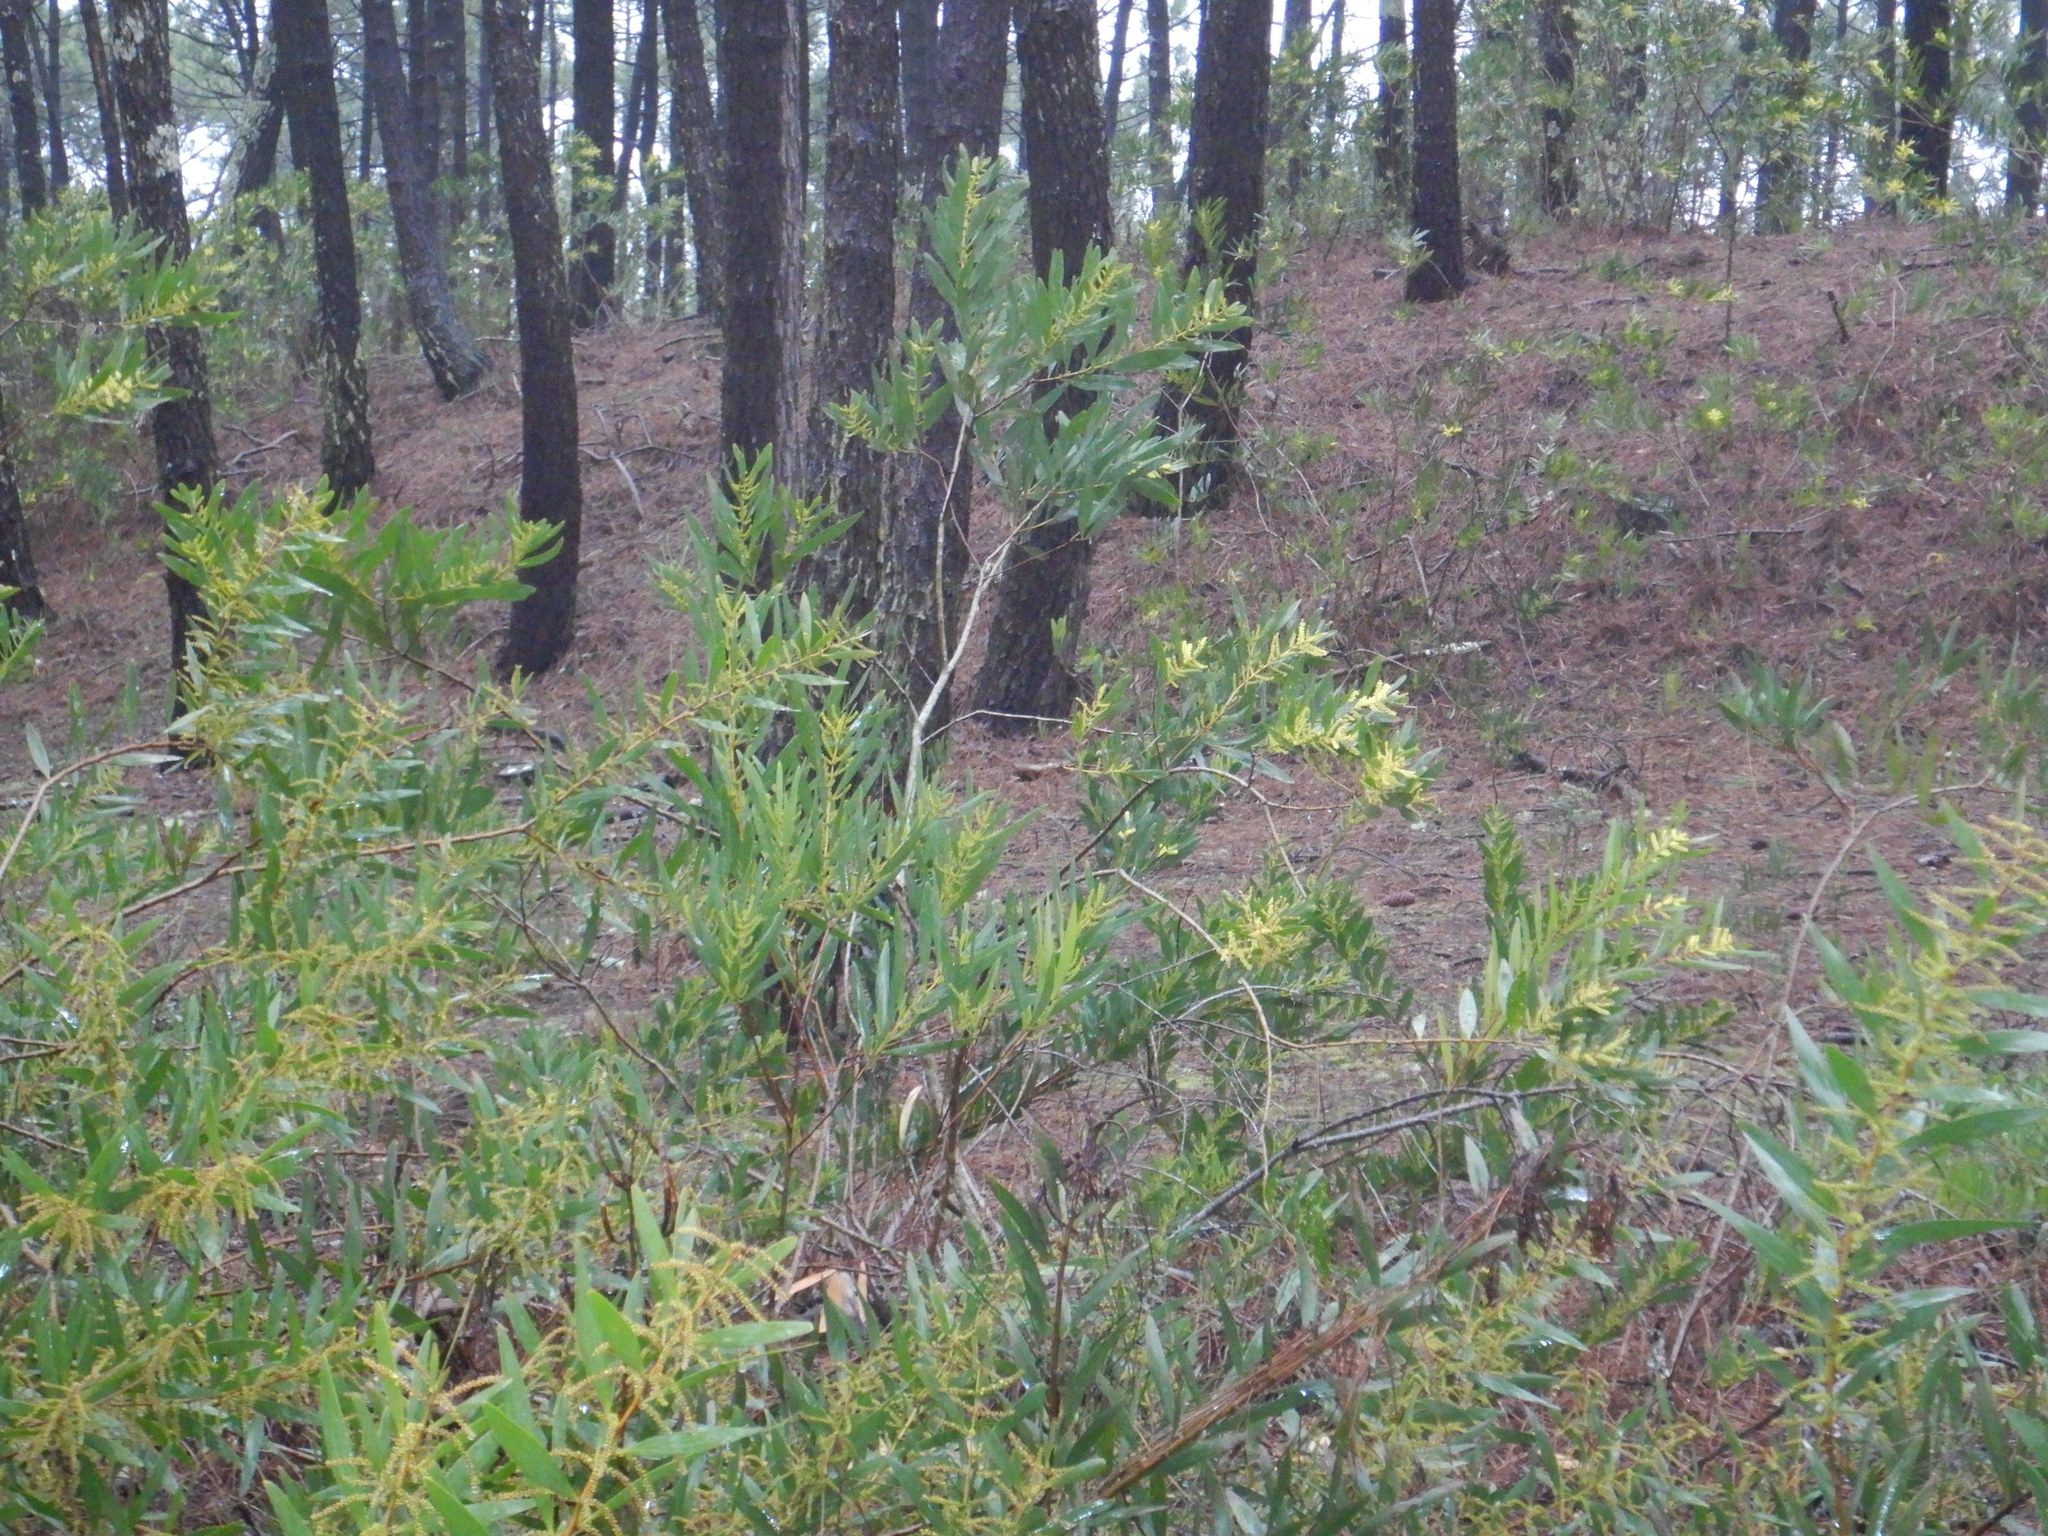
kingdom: Plantae
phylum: Tracheophyta
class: Magnoliopsida
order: Fabales
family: Fabaceae
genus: Acacia
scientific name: Acacia longifolia
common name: Sydney golden wattle
